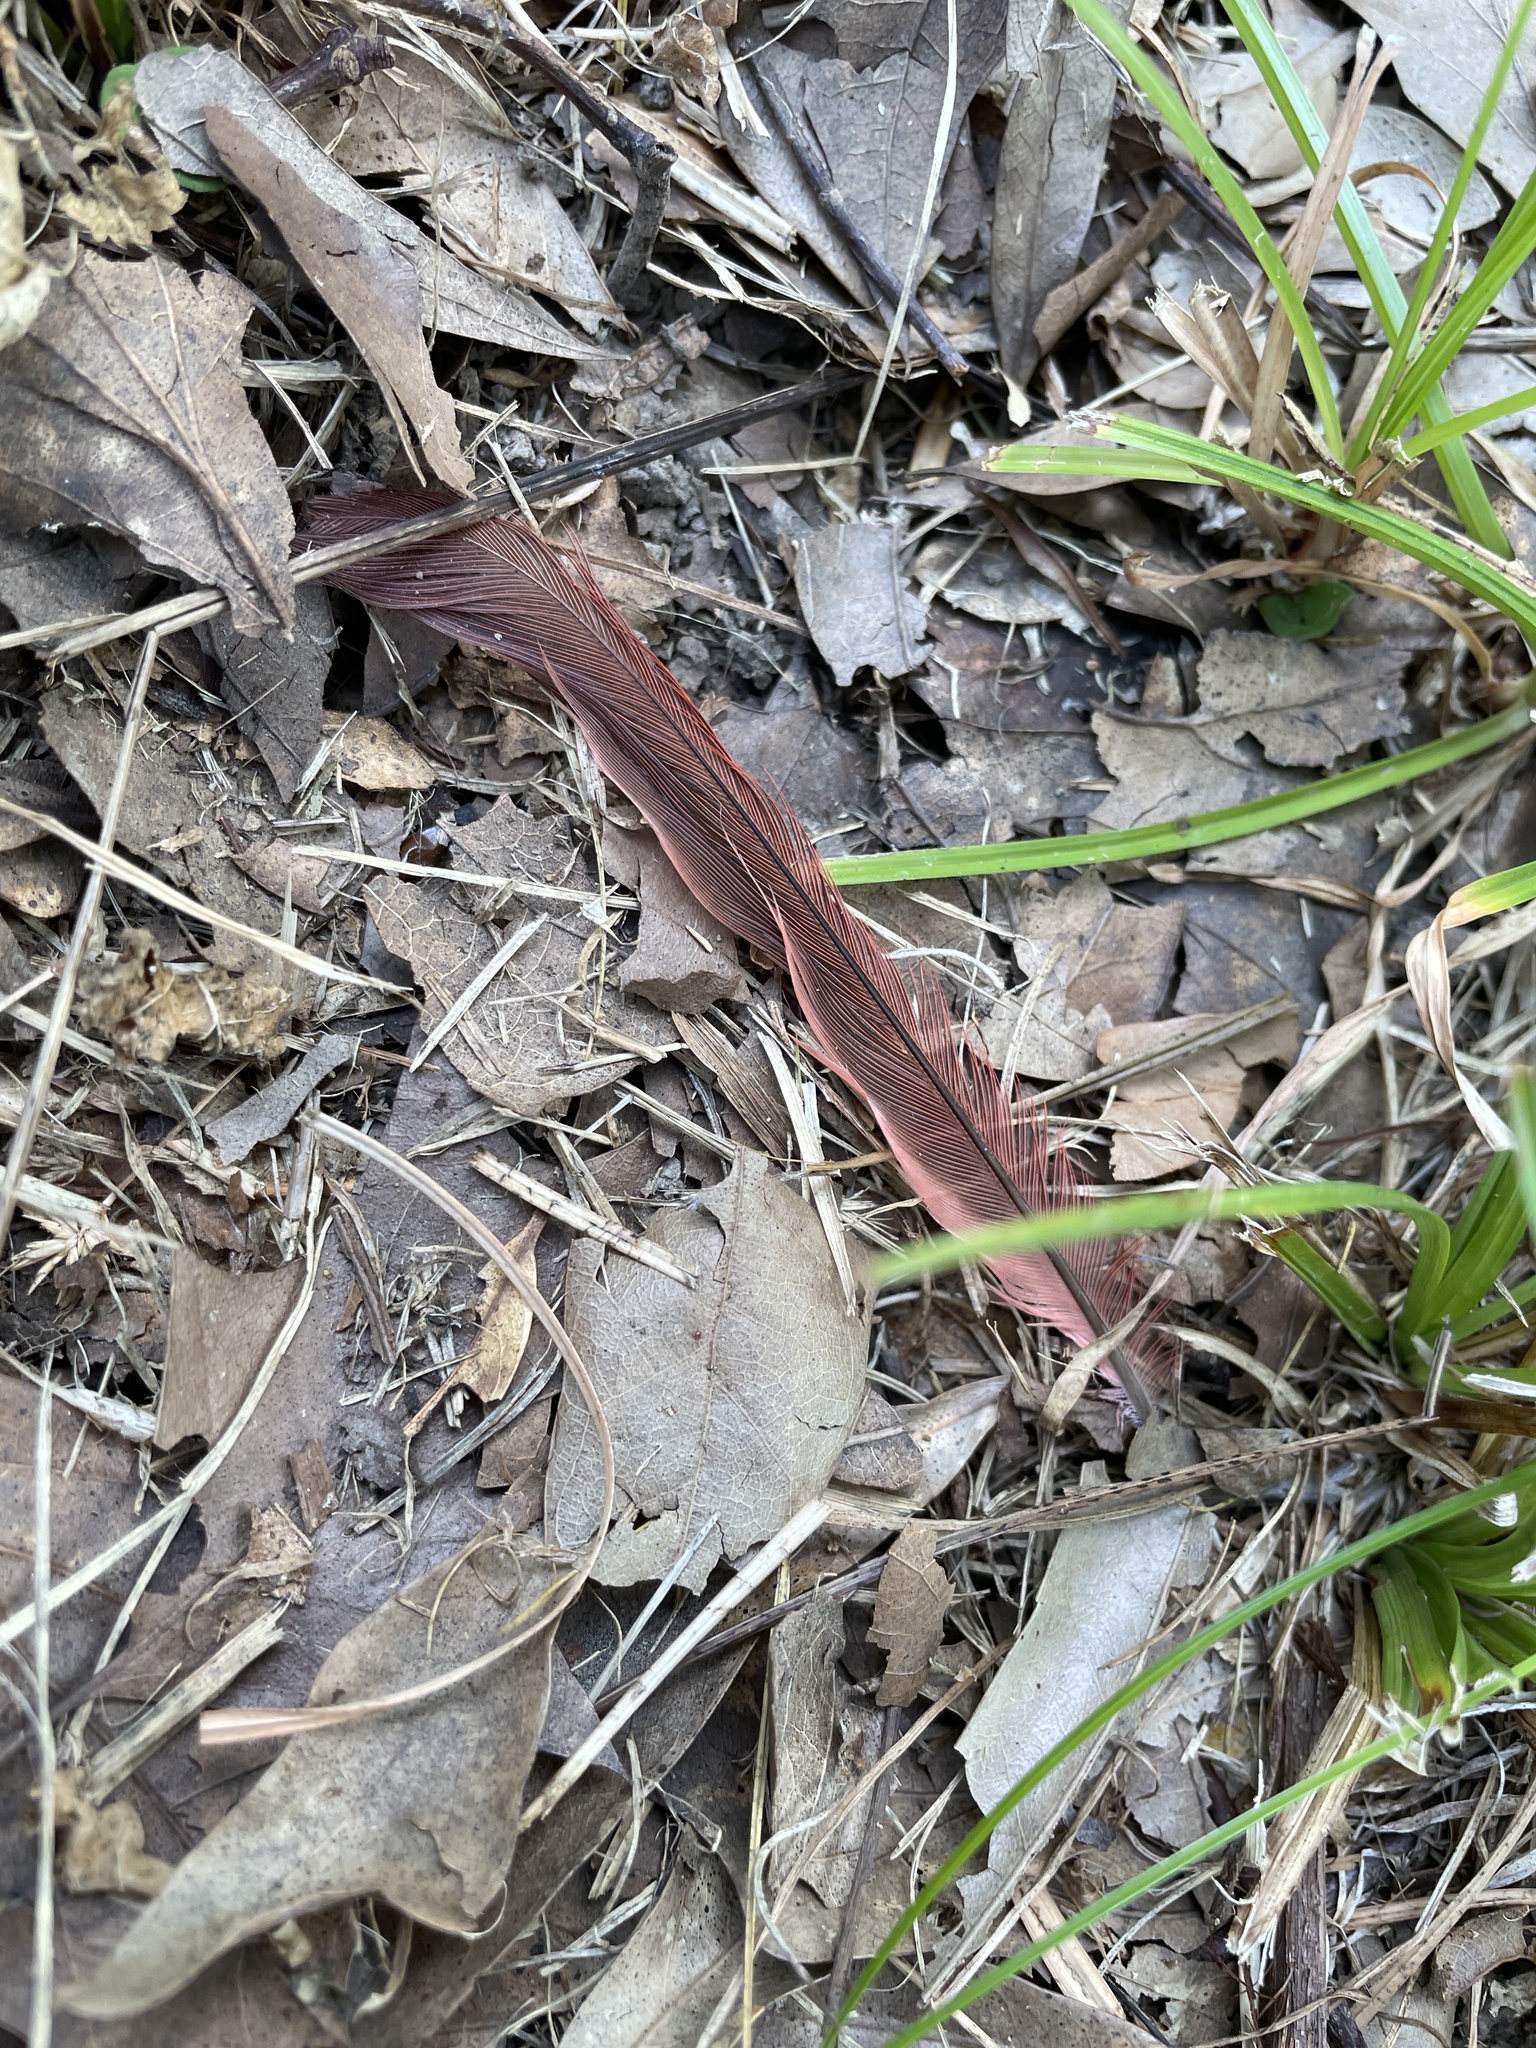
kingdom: Animalia
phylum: Chordata
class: Aves
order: Passeriformes
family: Cardinalidae
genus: Cardinalis
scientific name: Cardinalis cardinalis
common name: Northern cardinal
